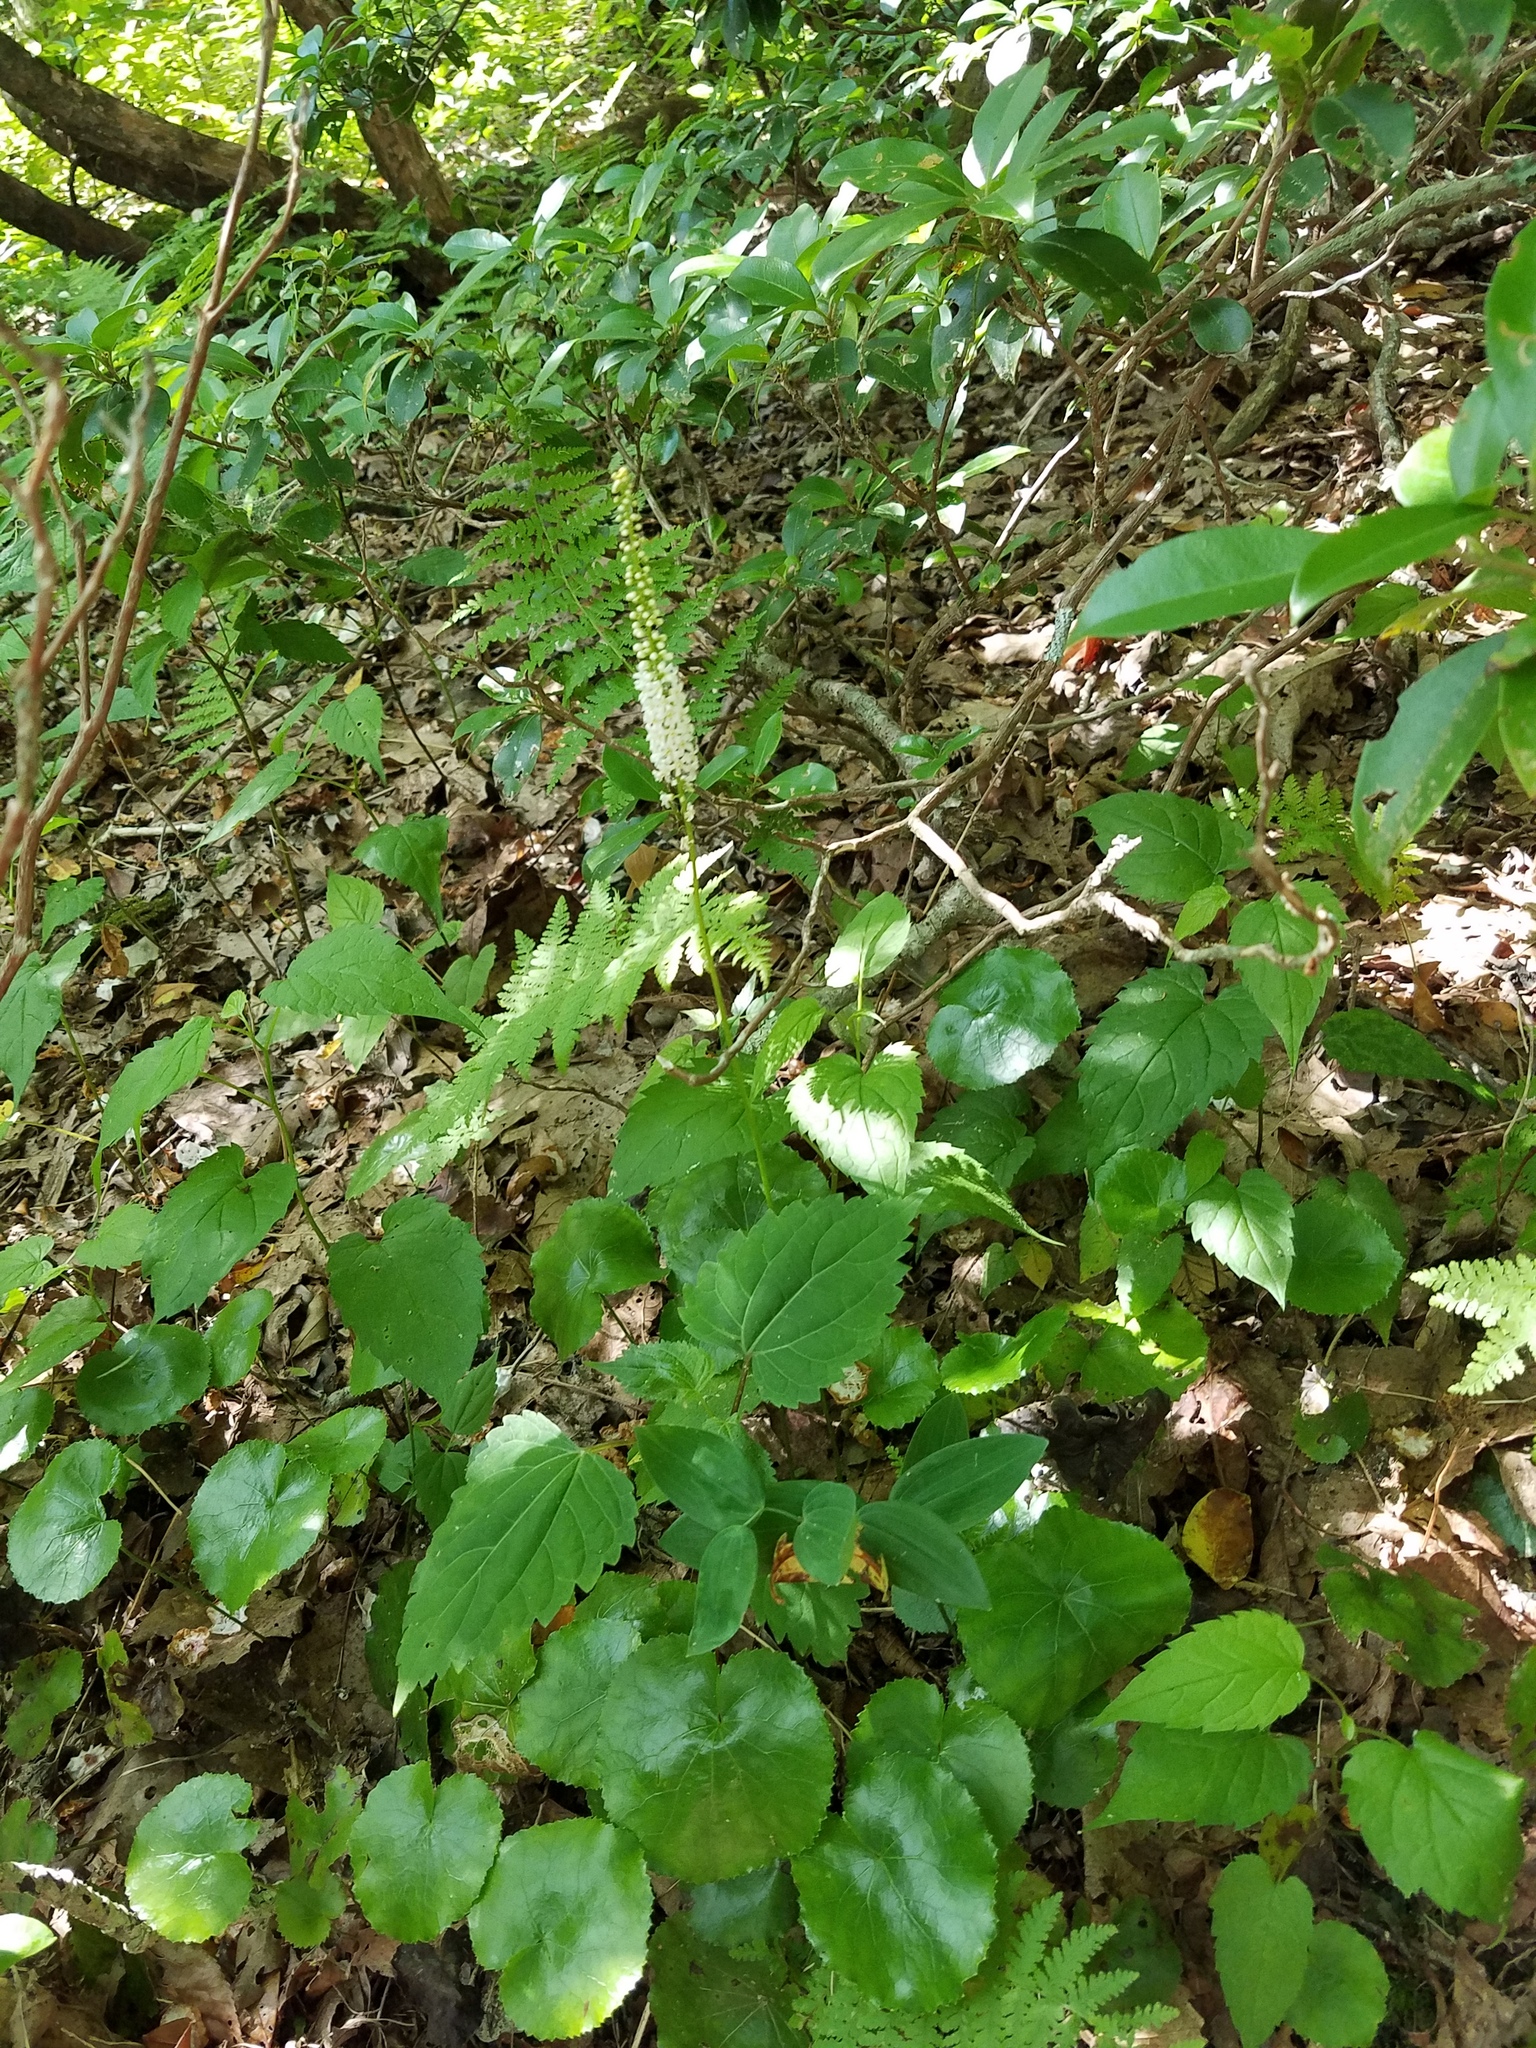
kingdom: Plantae
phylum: Tracheophyta
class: Magnoliopsida
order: Ericales
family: Diapensiaceae
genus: Galax
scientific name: Galax urceolata
